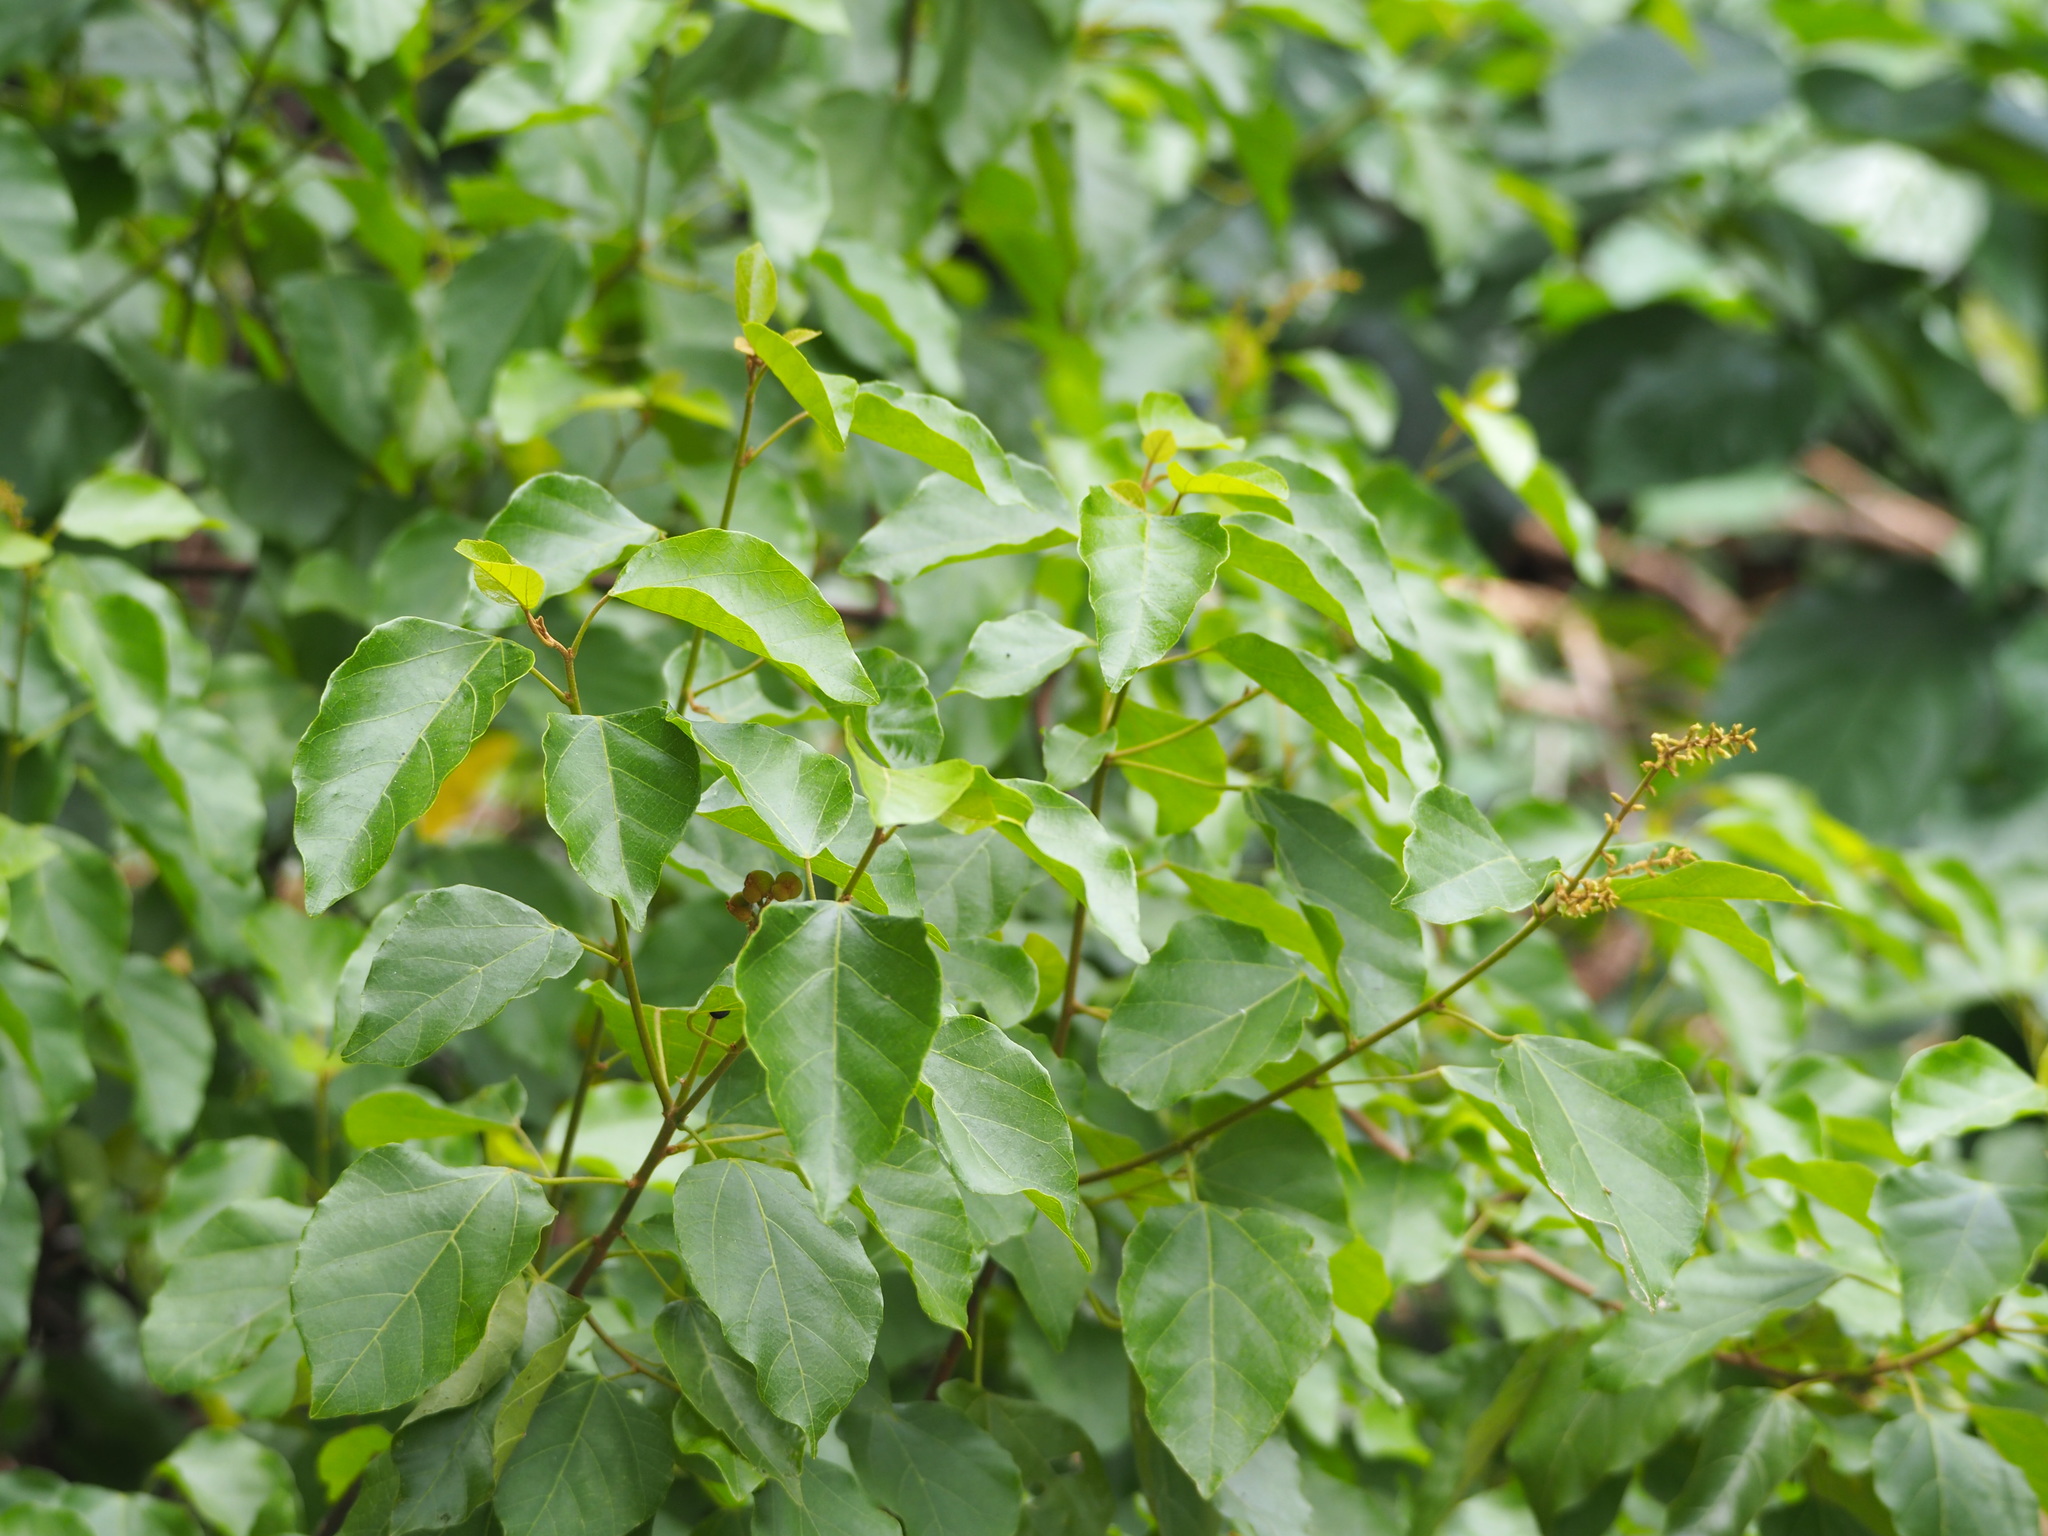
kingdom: Plantae
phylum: Tracheophyta
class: Magnoliopsida
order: Malpighiales
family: Euphorbiaceae
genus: Mallotus
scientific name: Mallotus repandus
